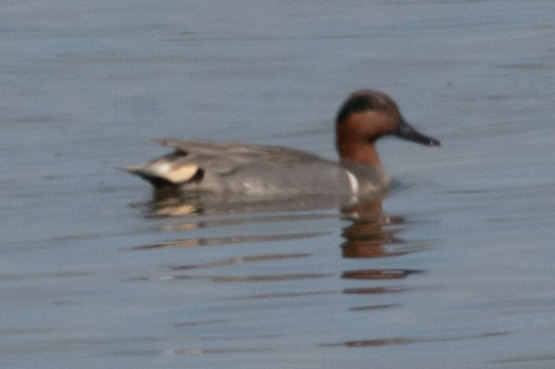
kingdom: Animalia
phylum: Chordata
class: Aves
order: Anseriformes
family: Anatidae
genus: Anas
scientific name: Anas crecca
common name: Eurasian teal
